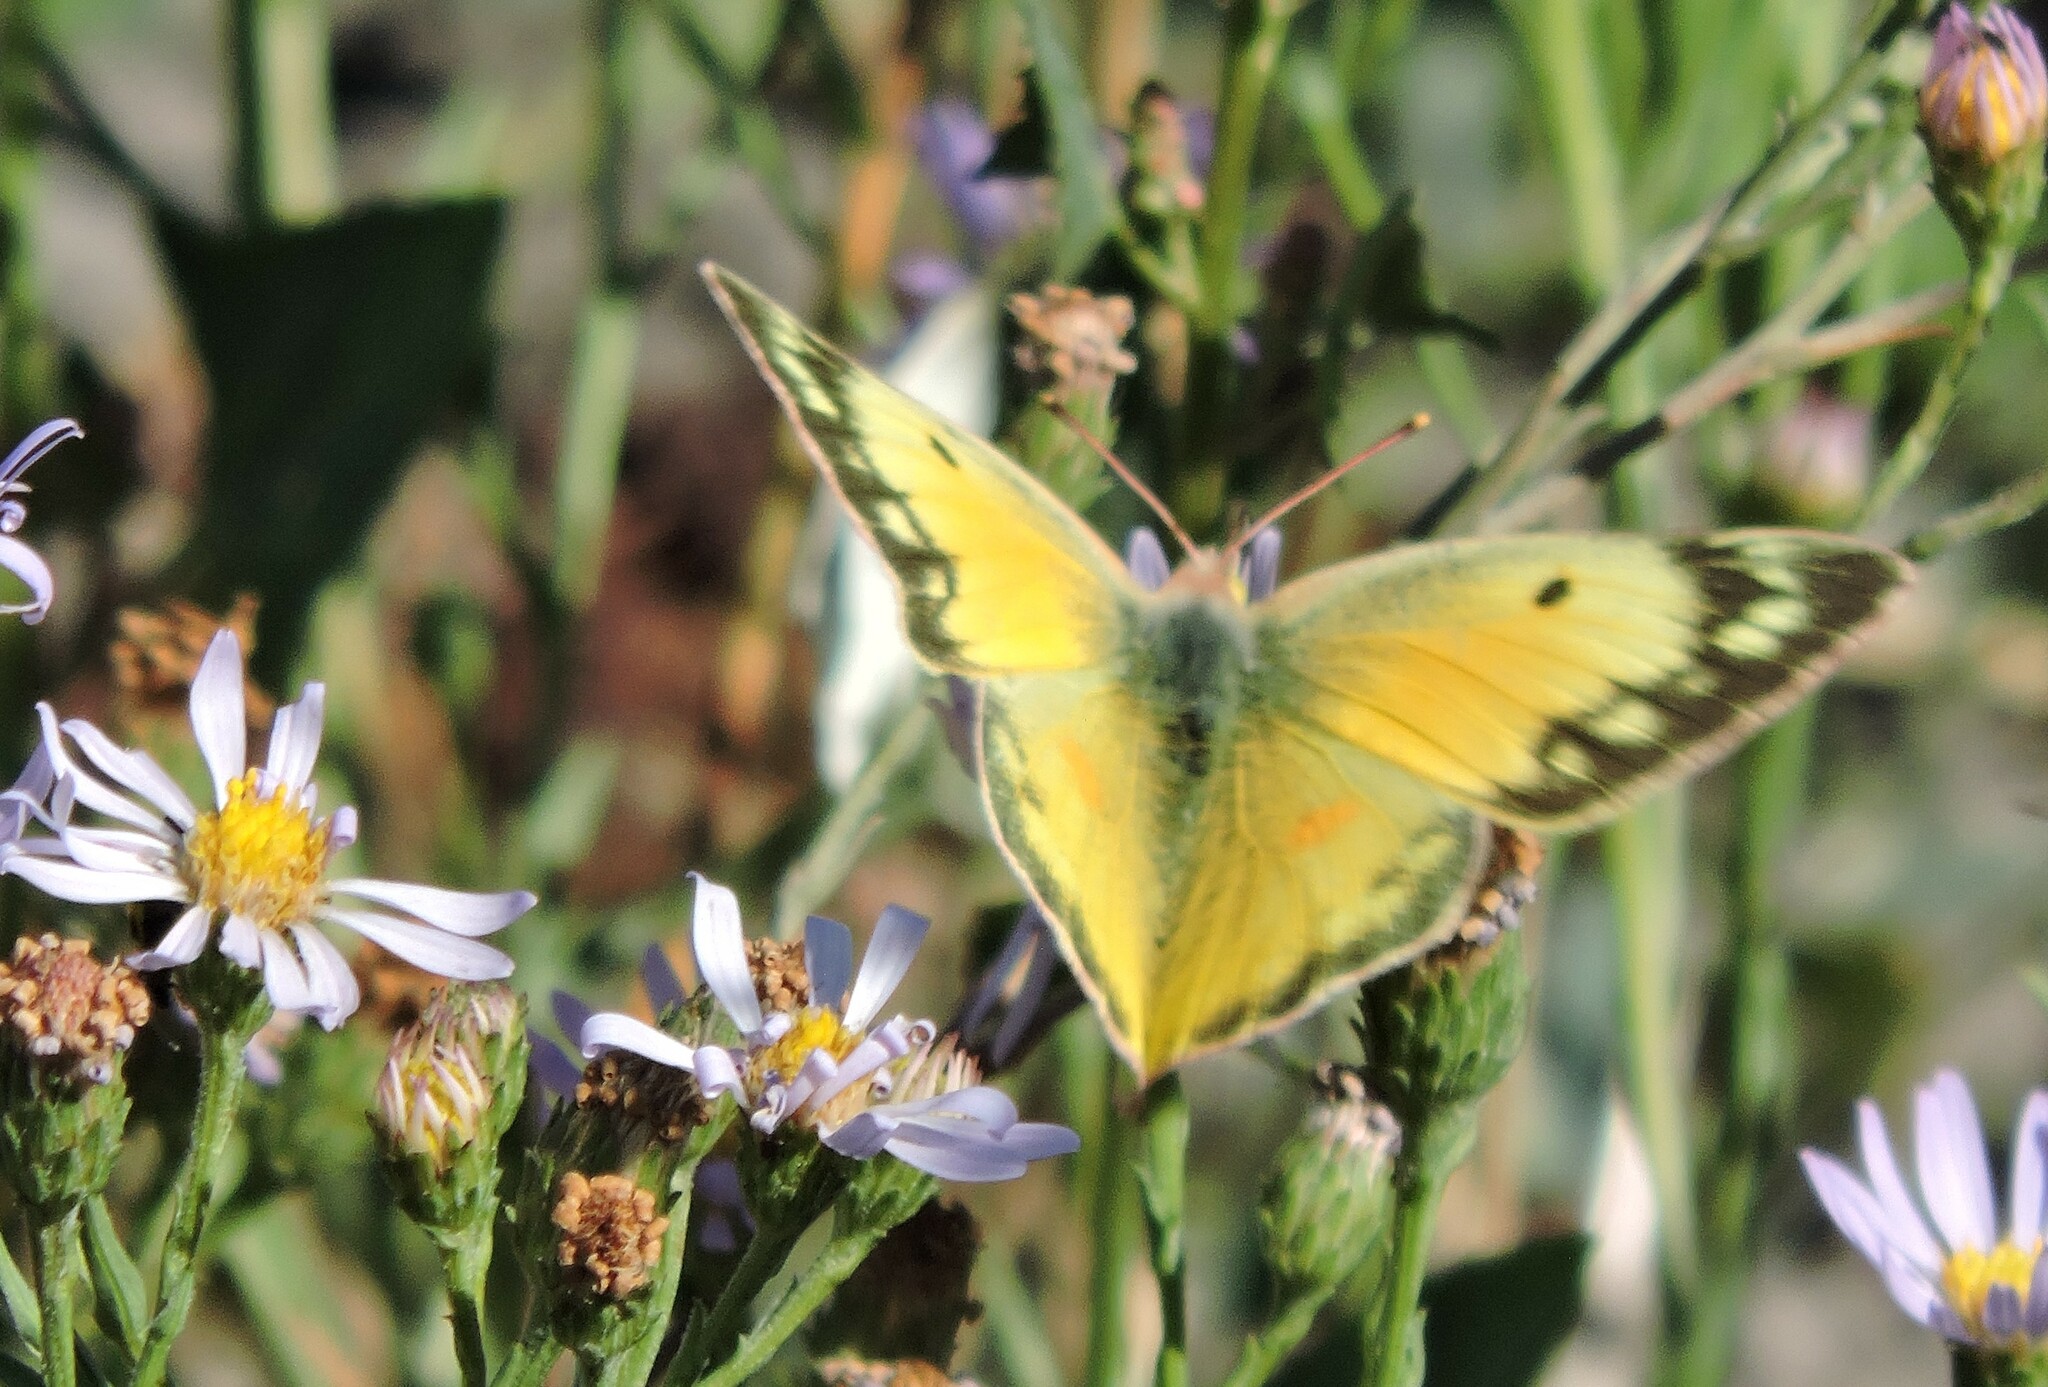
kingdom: Animalia
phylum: Arthropoda
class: Insecta
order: Lepidoptera
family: Pieridae
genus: Colias
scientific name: Colias eurytheme
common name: Alfalfa butterfly
